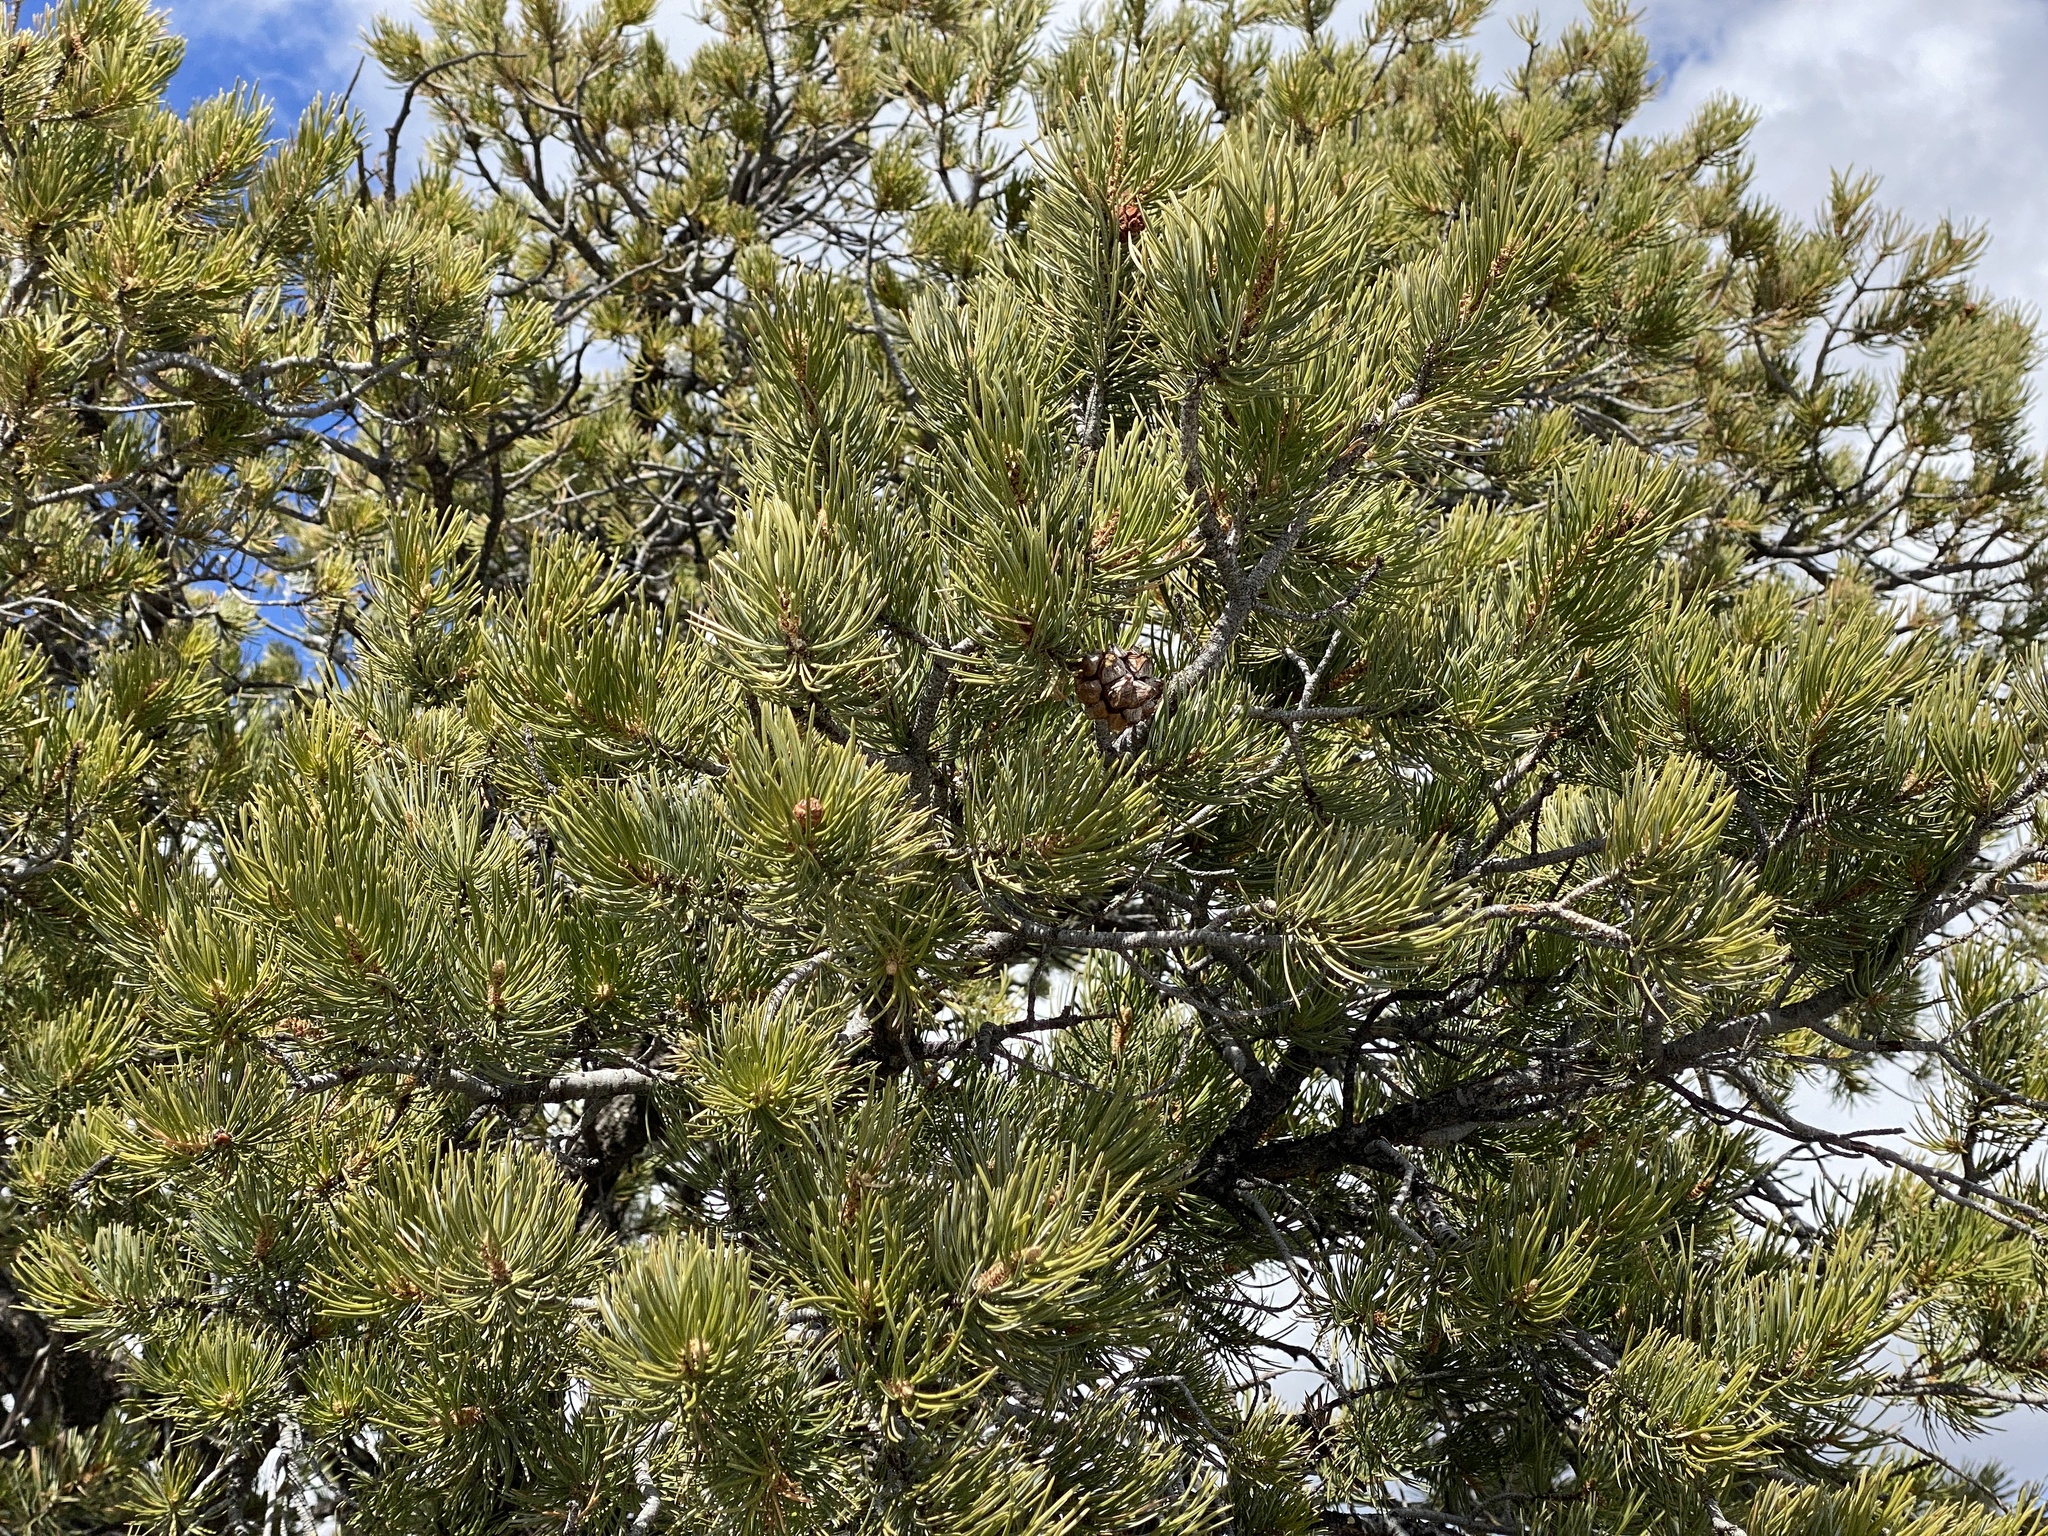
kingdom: Plantae
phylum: Tracheophyta
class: Pinopsida
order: Pinales
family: Pinaceae
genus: Pinus
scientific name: Pinus edulis
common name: Colorado pinyon
